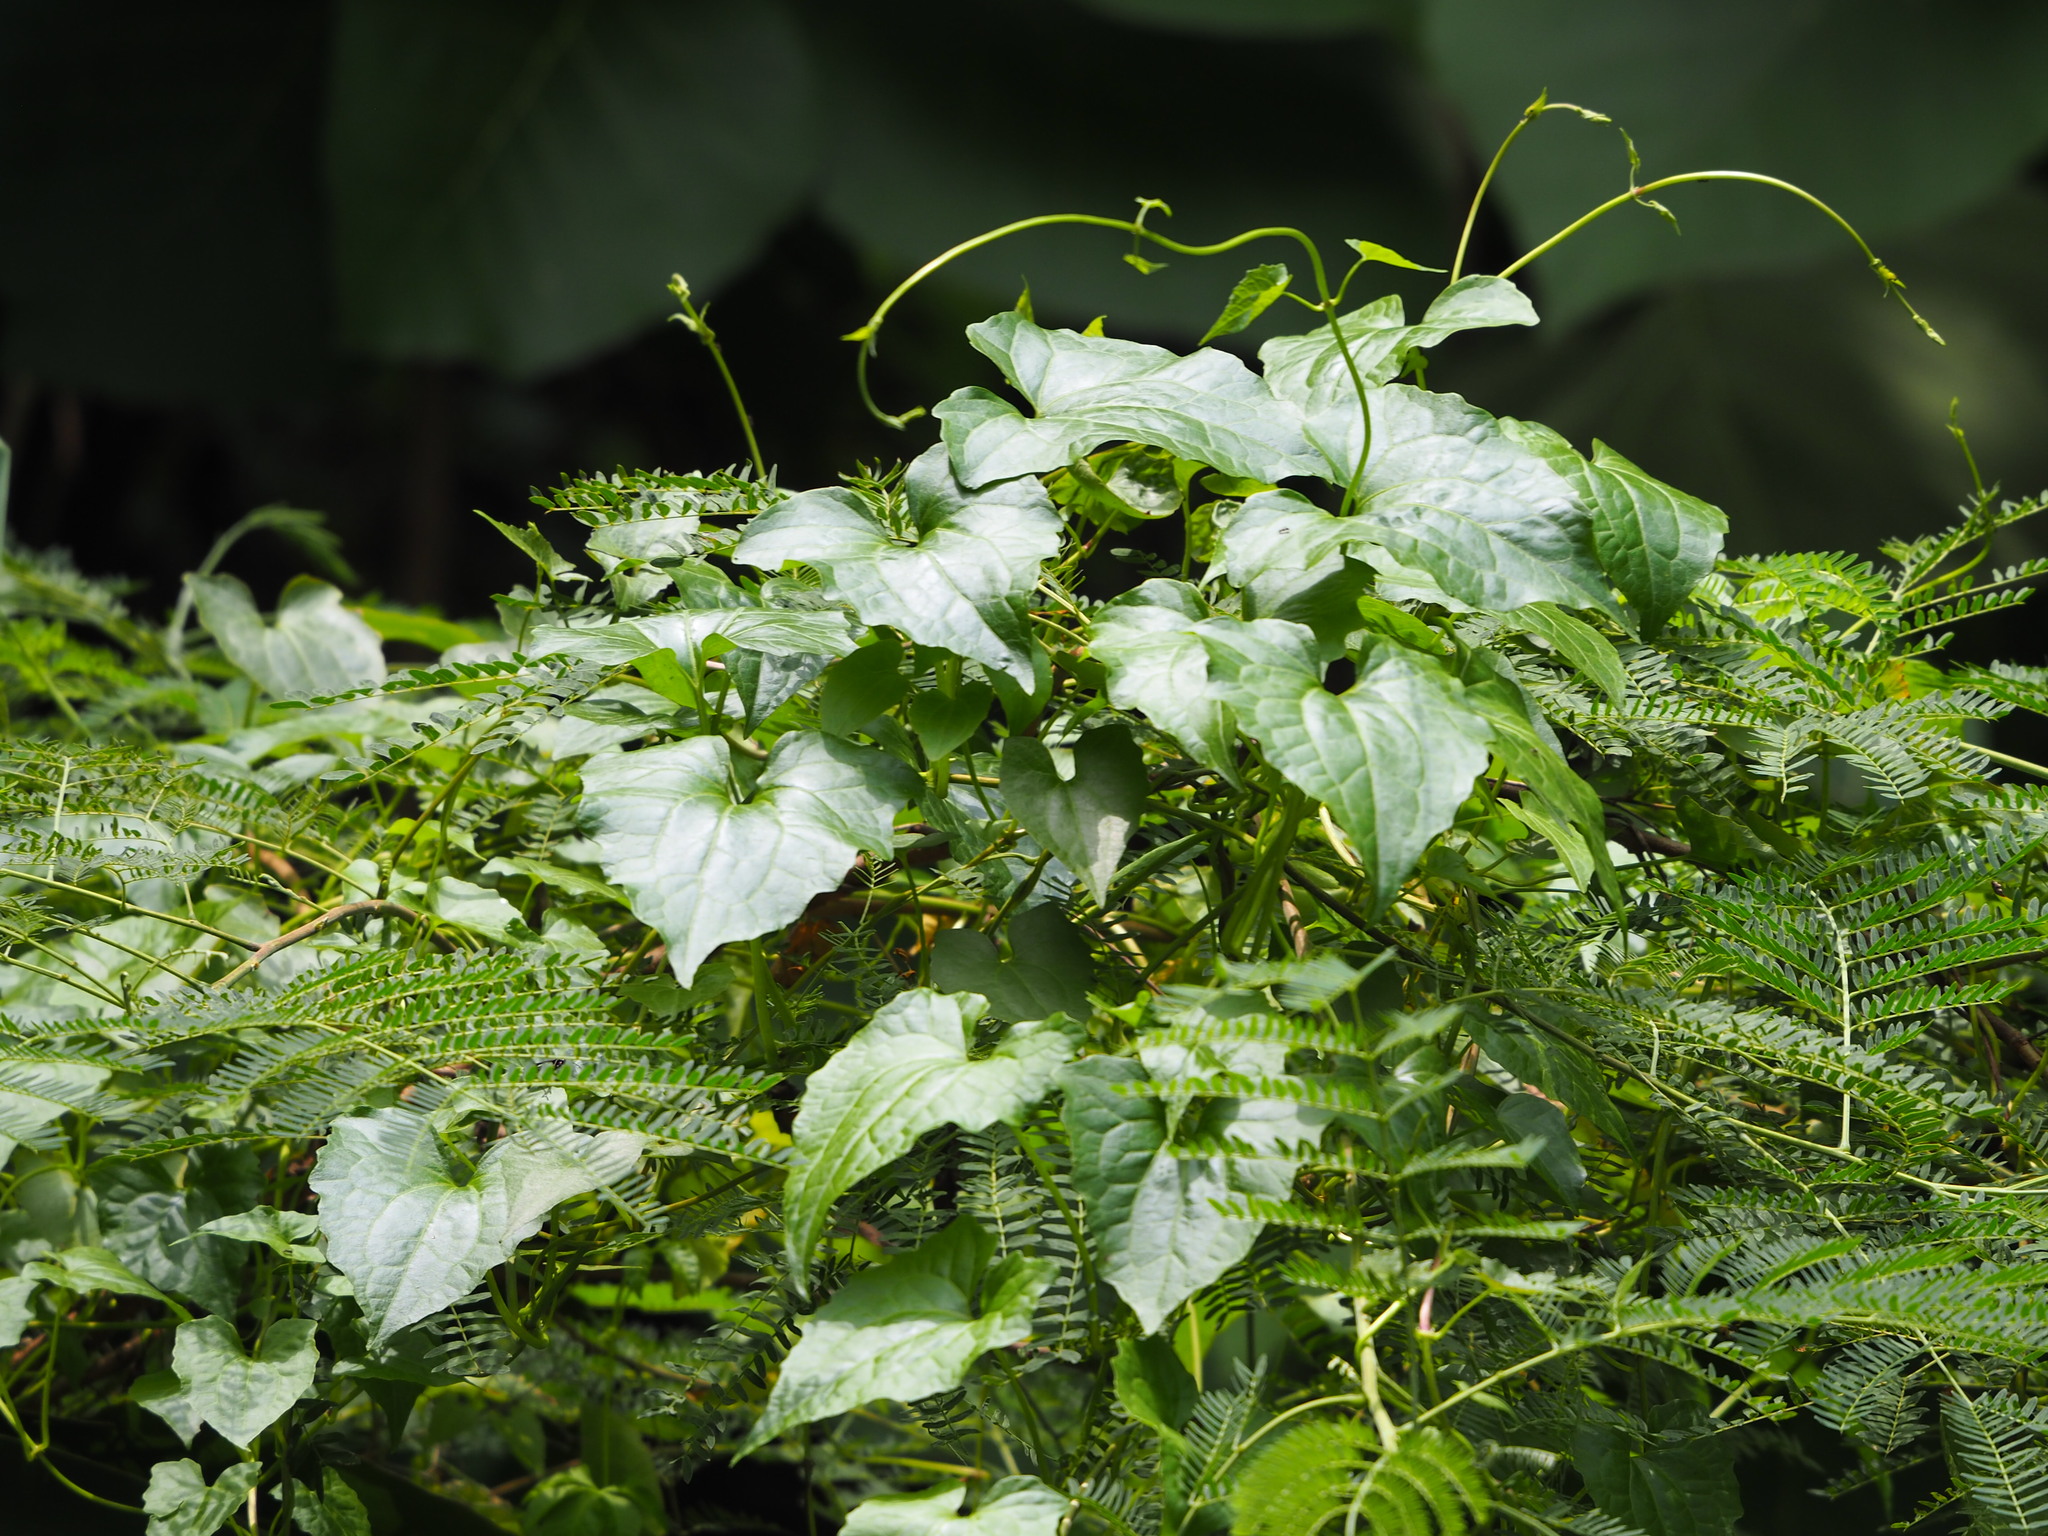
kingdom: Plantae
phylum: Tracheophyta
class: Magnoliopsida
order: Asterales
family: Asteraceae
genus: Mikania
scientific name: Mikania micrantha
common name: Mile-a-minute
